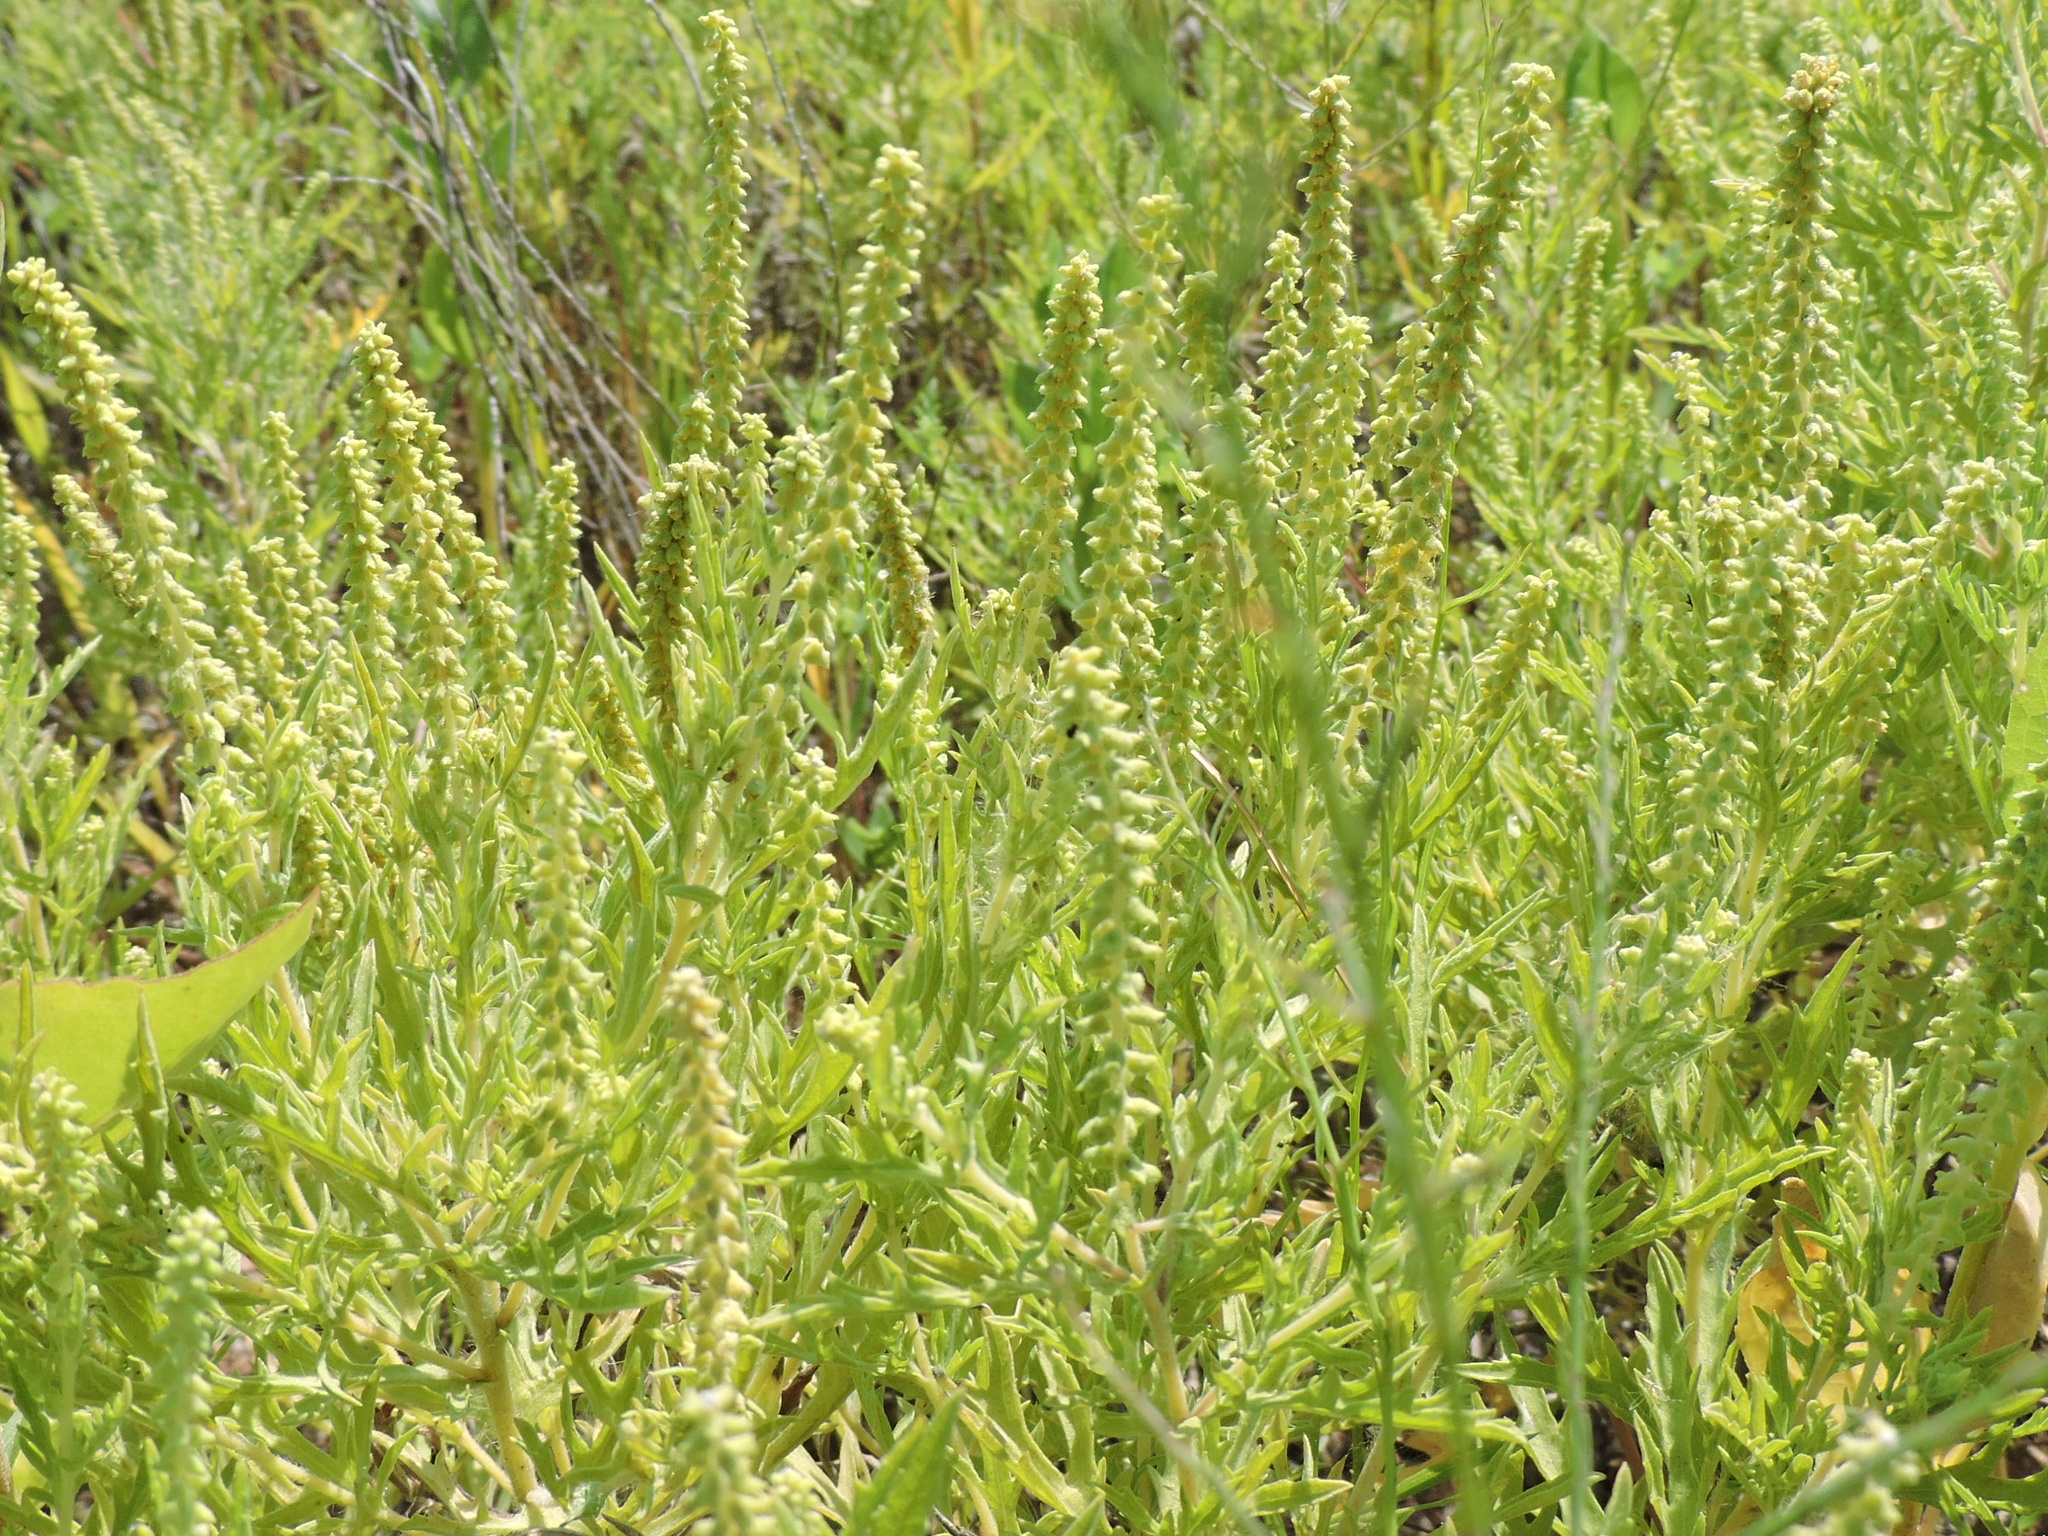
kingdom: Plantae
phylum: Tracheophyta
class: Magnoliopsida
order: Asterales
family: Asteraceae
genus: Ambrosia
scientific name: Ambrosia psilostachya
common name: Perennial ragweed
